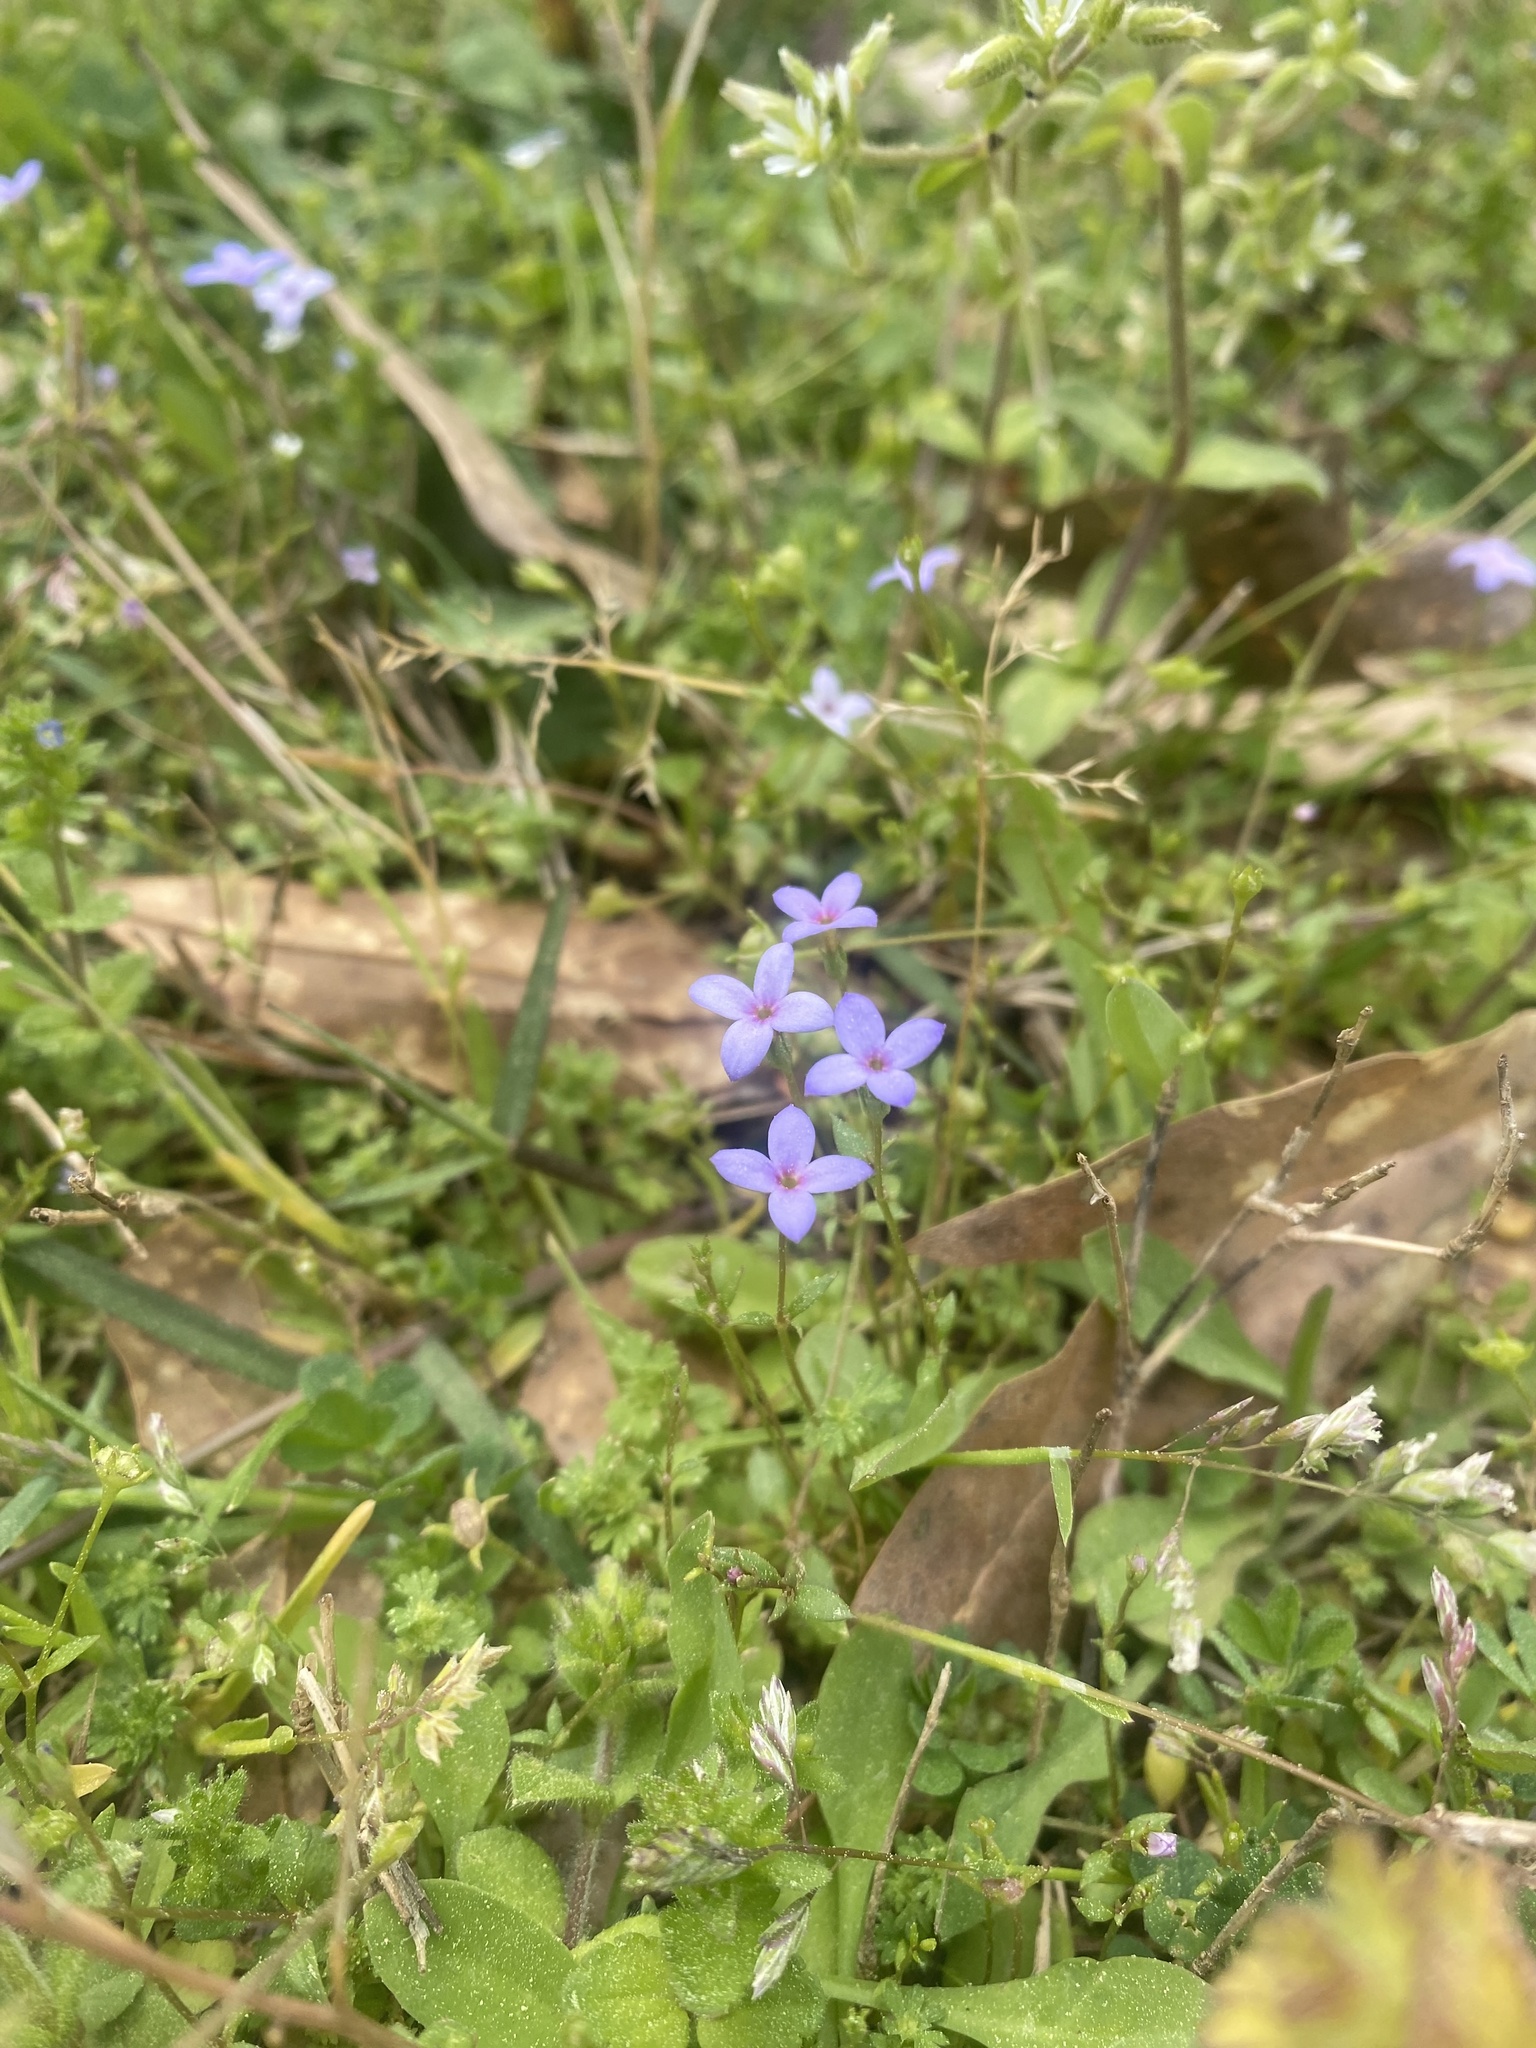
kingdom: Plantae
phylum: Tracheophyta
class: Magnoliopsida
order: Gentianales
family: Rubiaceae
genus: Houstonia
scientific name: Houstonia pusilla
